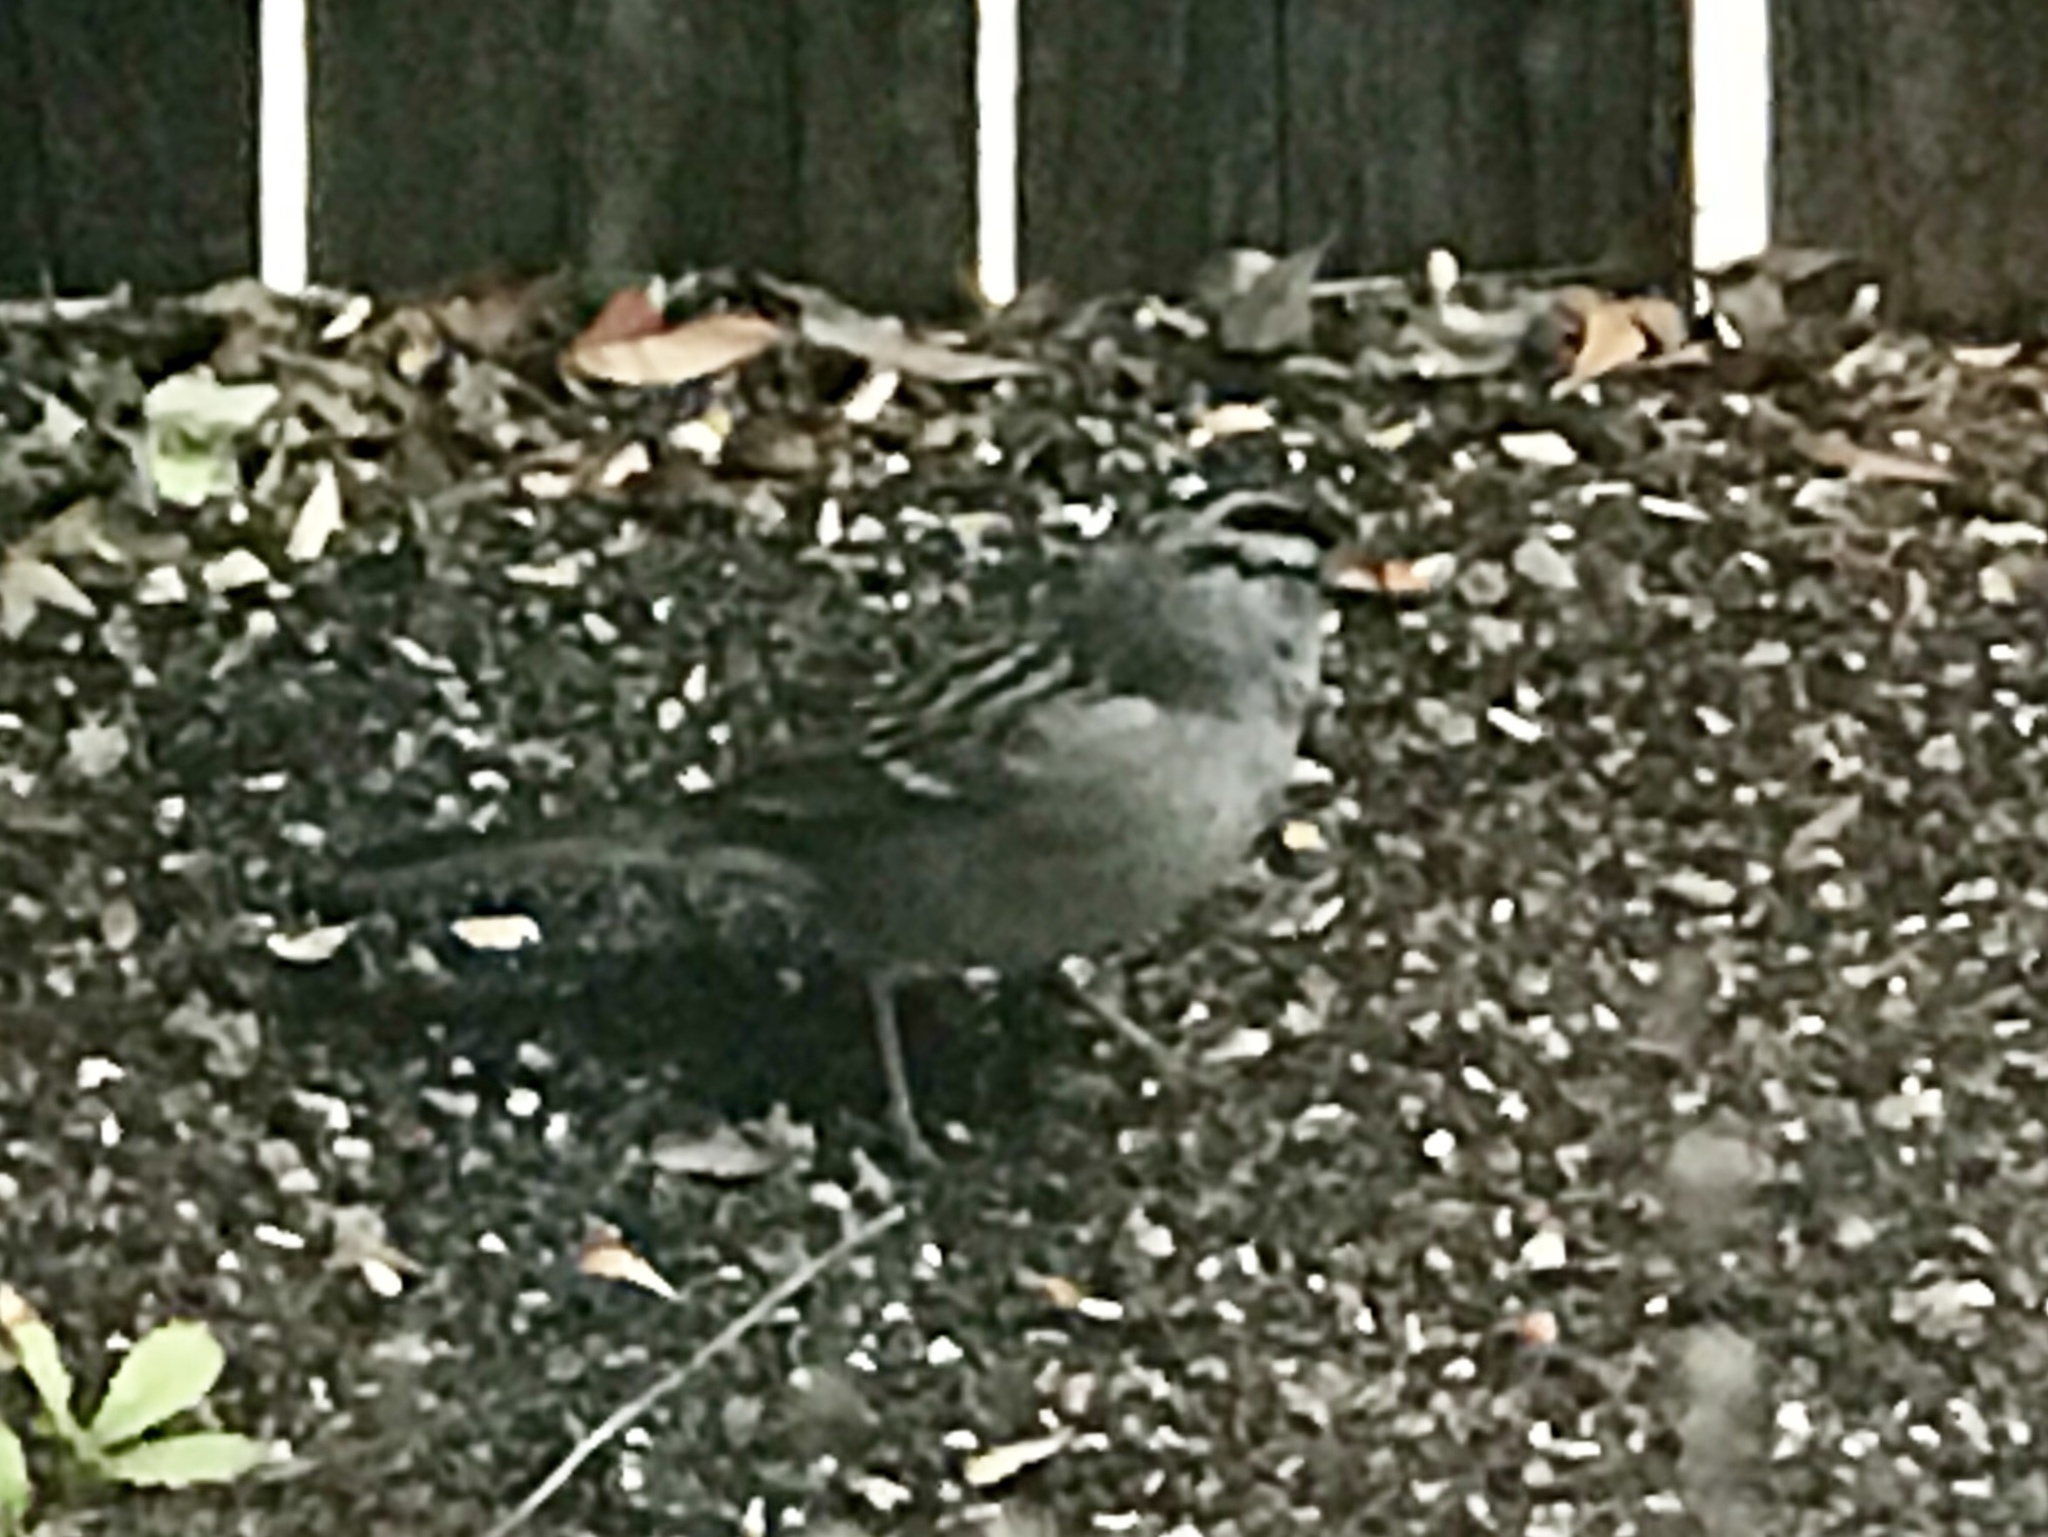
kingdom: Animalia
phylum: Chordata
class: Aves
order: Passeriformes
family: Passerellidae
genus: Zonotrichia
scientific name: Zonotrichia leucophrys
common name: White-crowned sparrow
